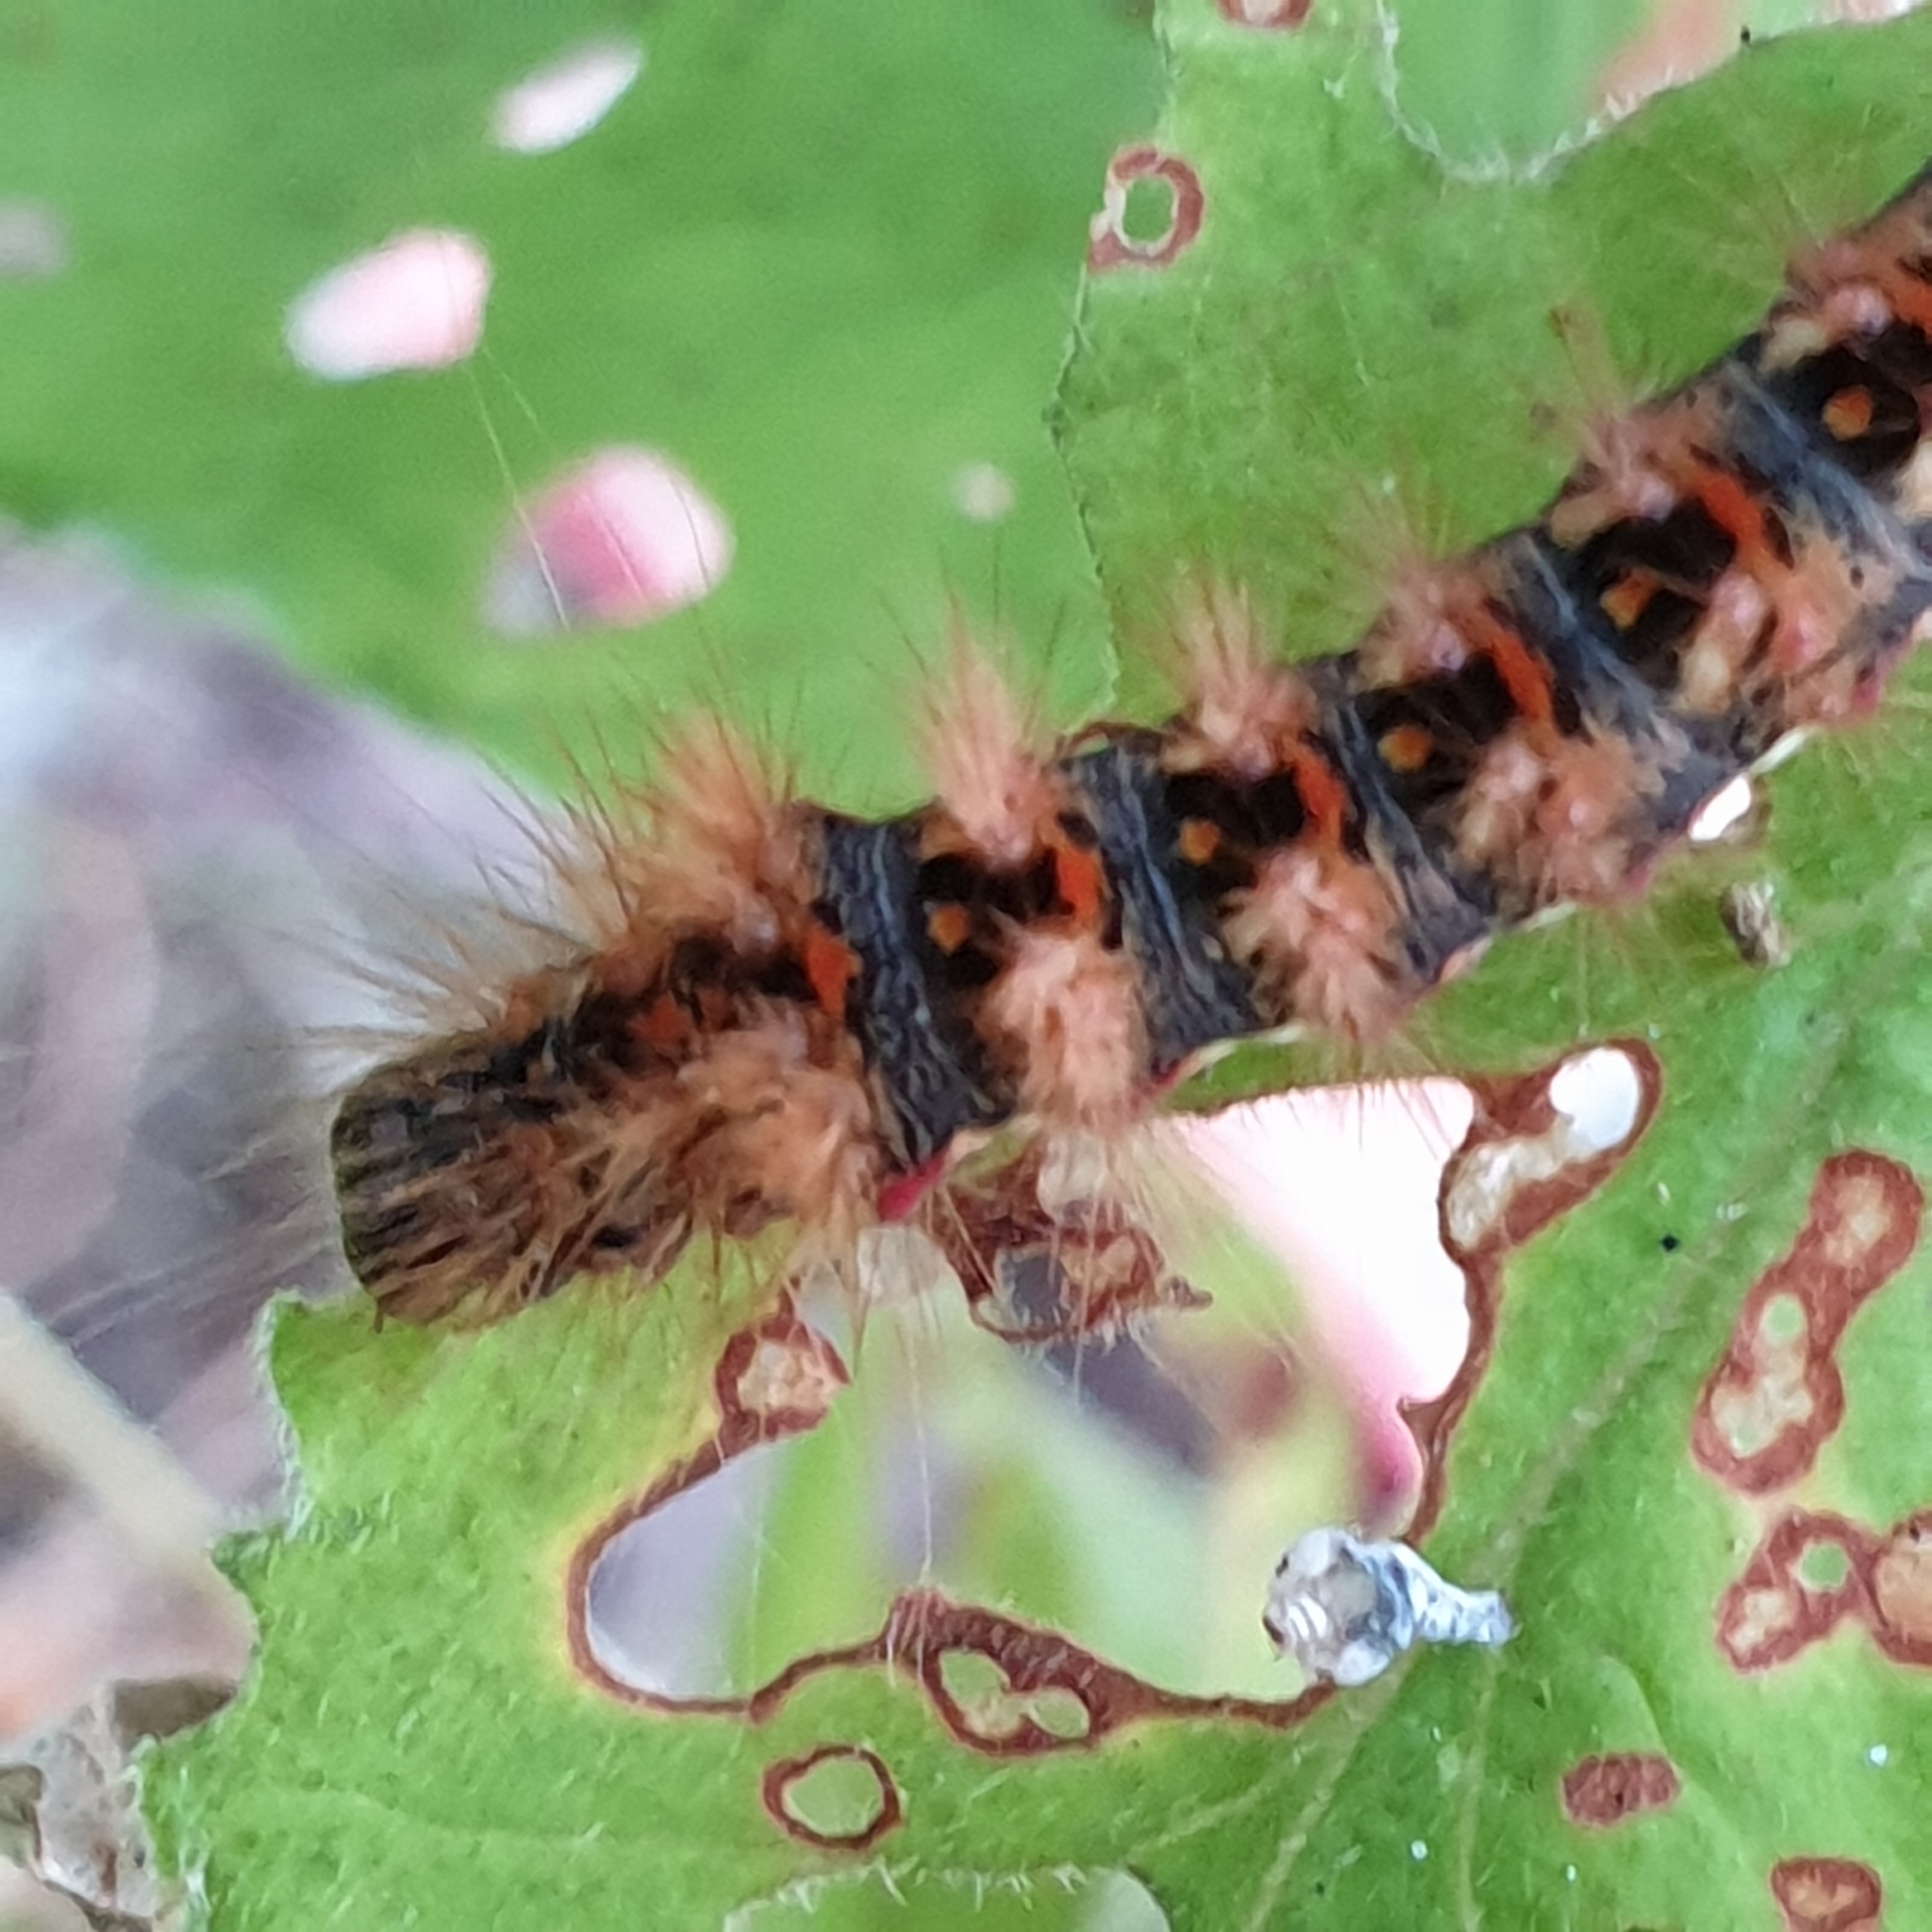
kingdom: Animalia
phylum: Arthropoda
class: Insecta
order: Lepidoptera
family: Noctuidae
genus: Acronicta
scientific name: Acronicta rumicis
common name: Knot grass
